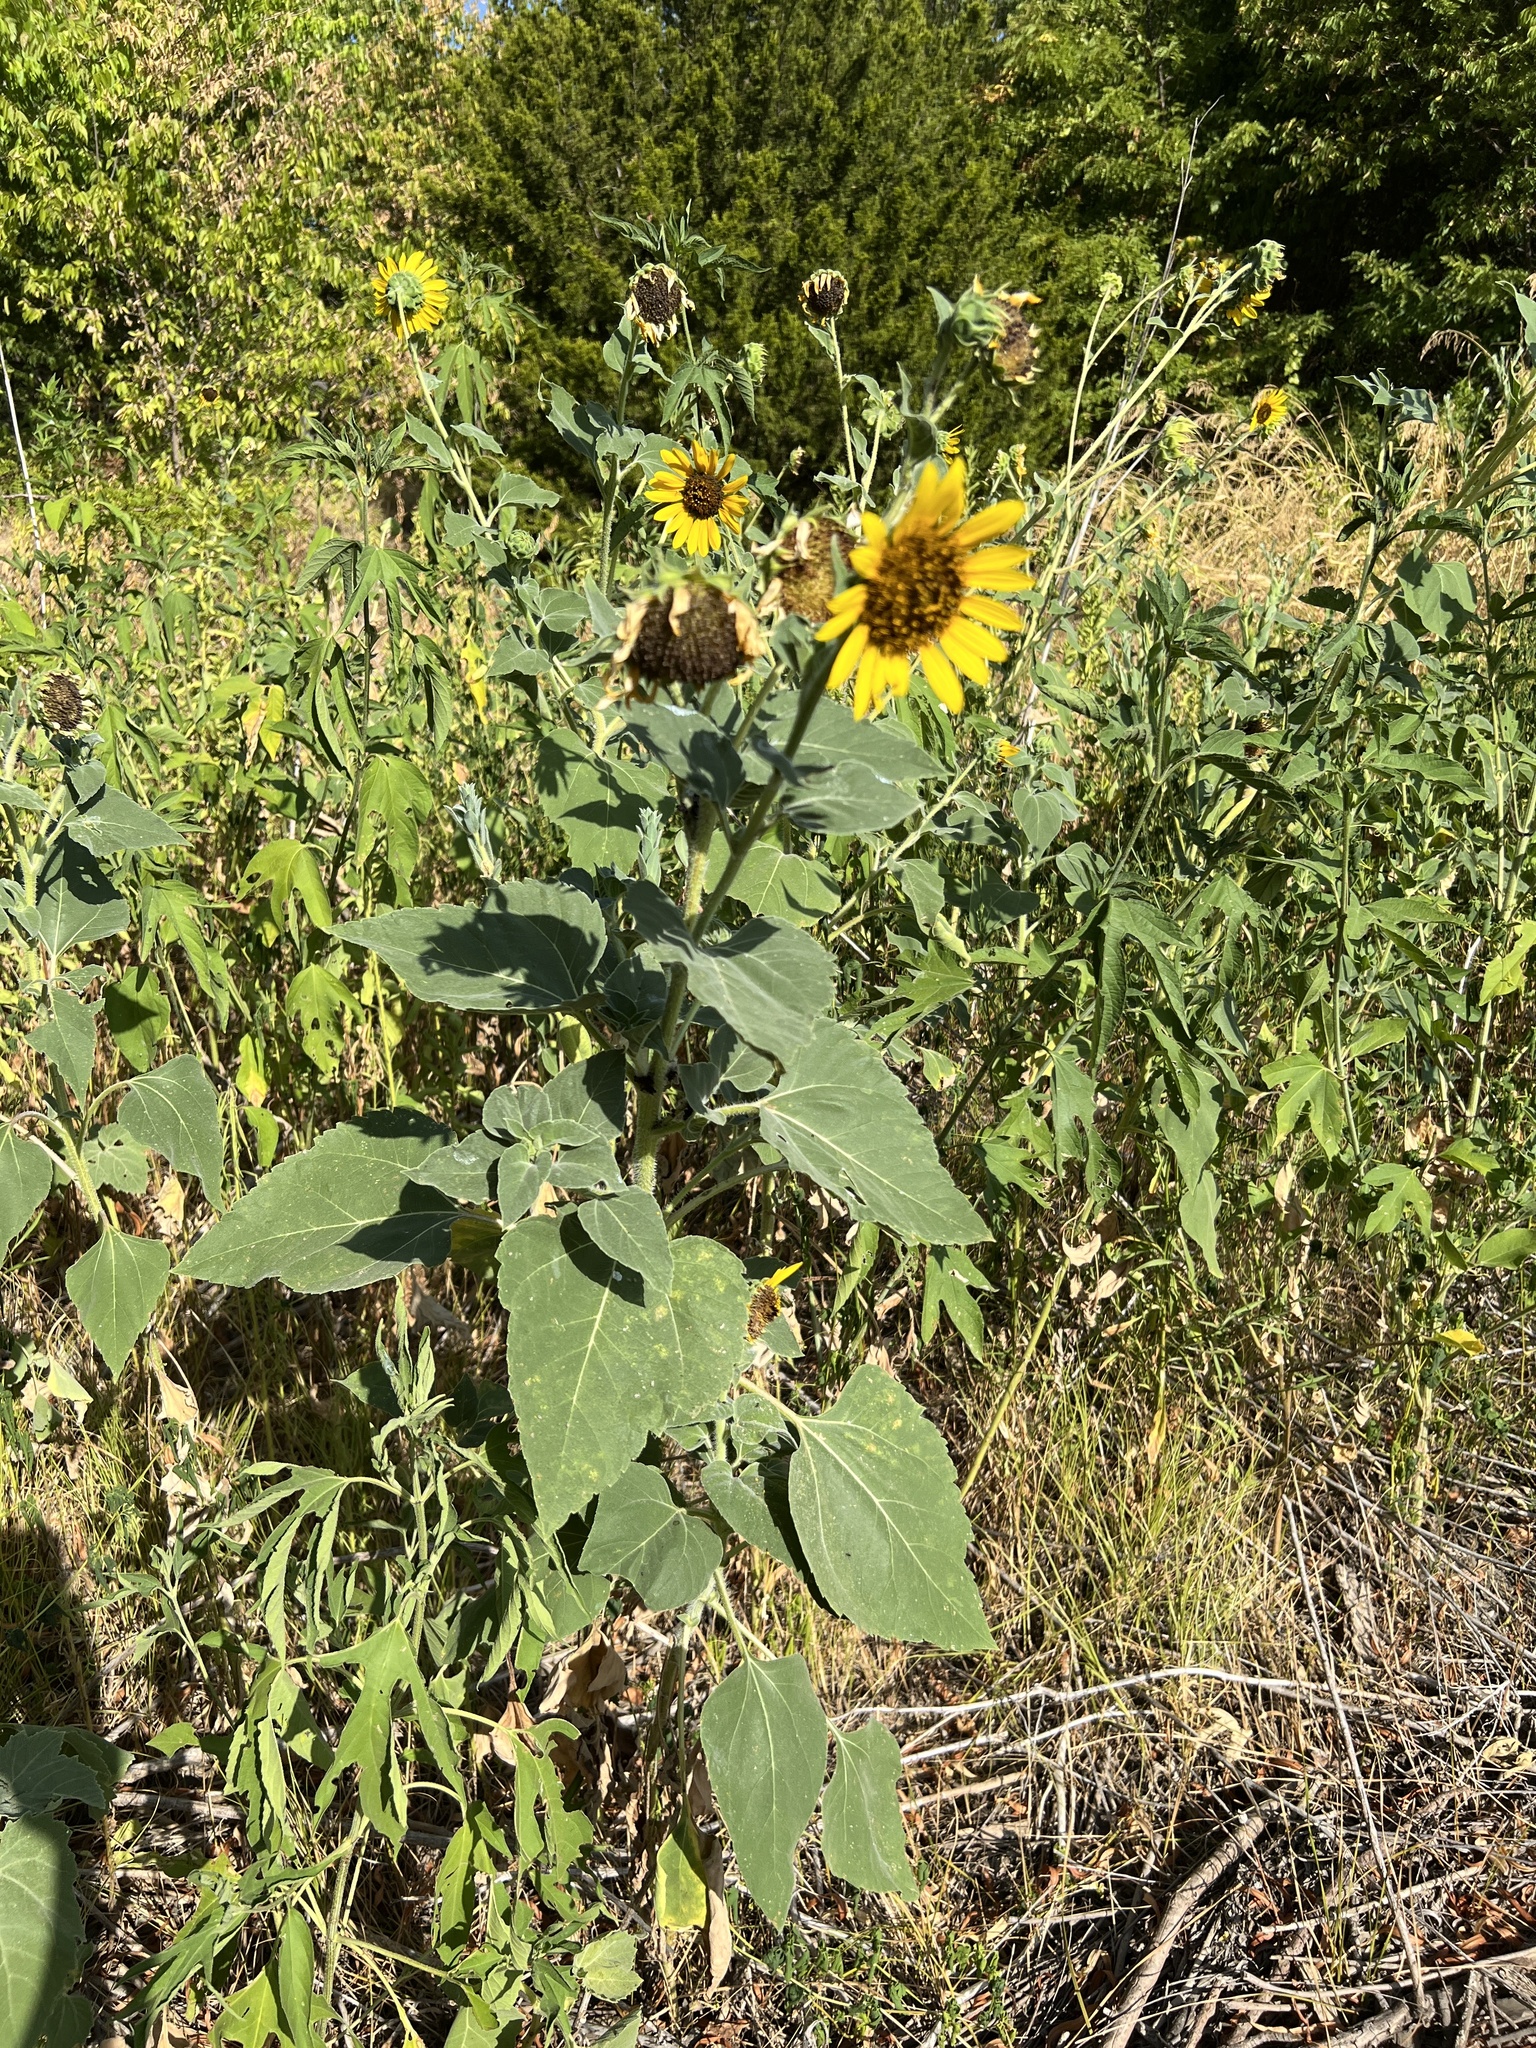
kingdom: Plantae
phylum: Tracheophyta
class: Magnoliopsida
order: Asterales
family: Asteraceae
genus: Helianthus
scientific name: Helianthus annuus
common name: Sunflower
